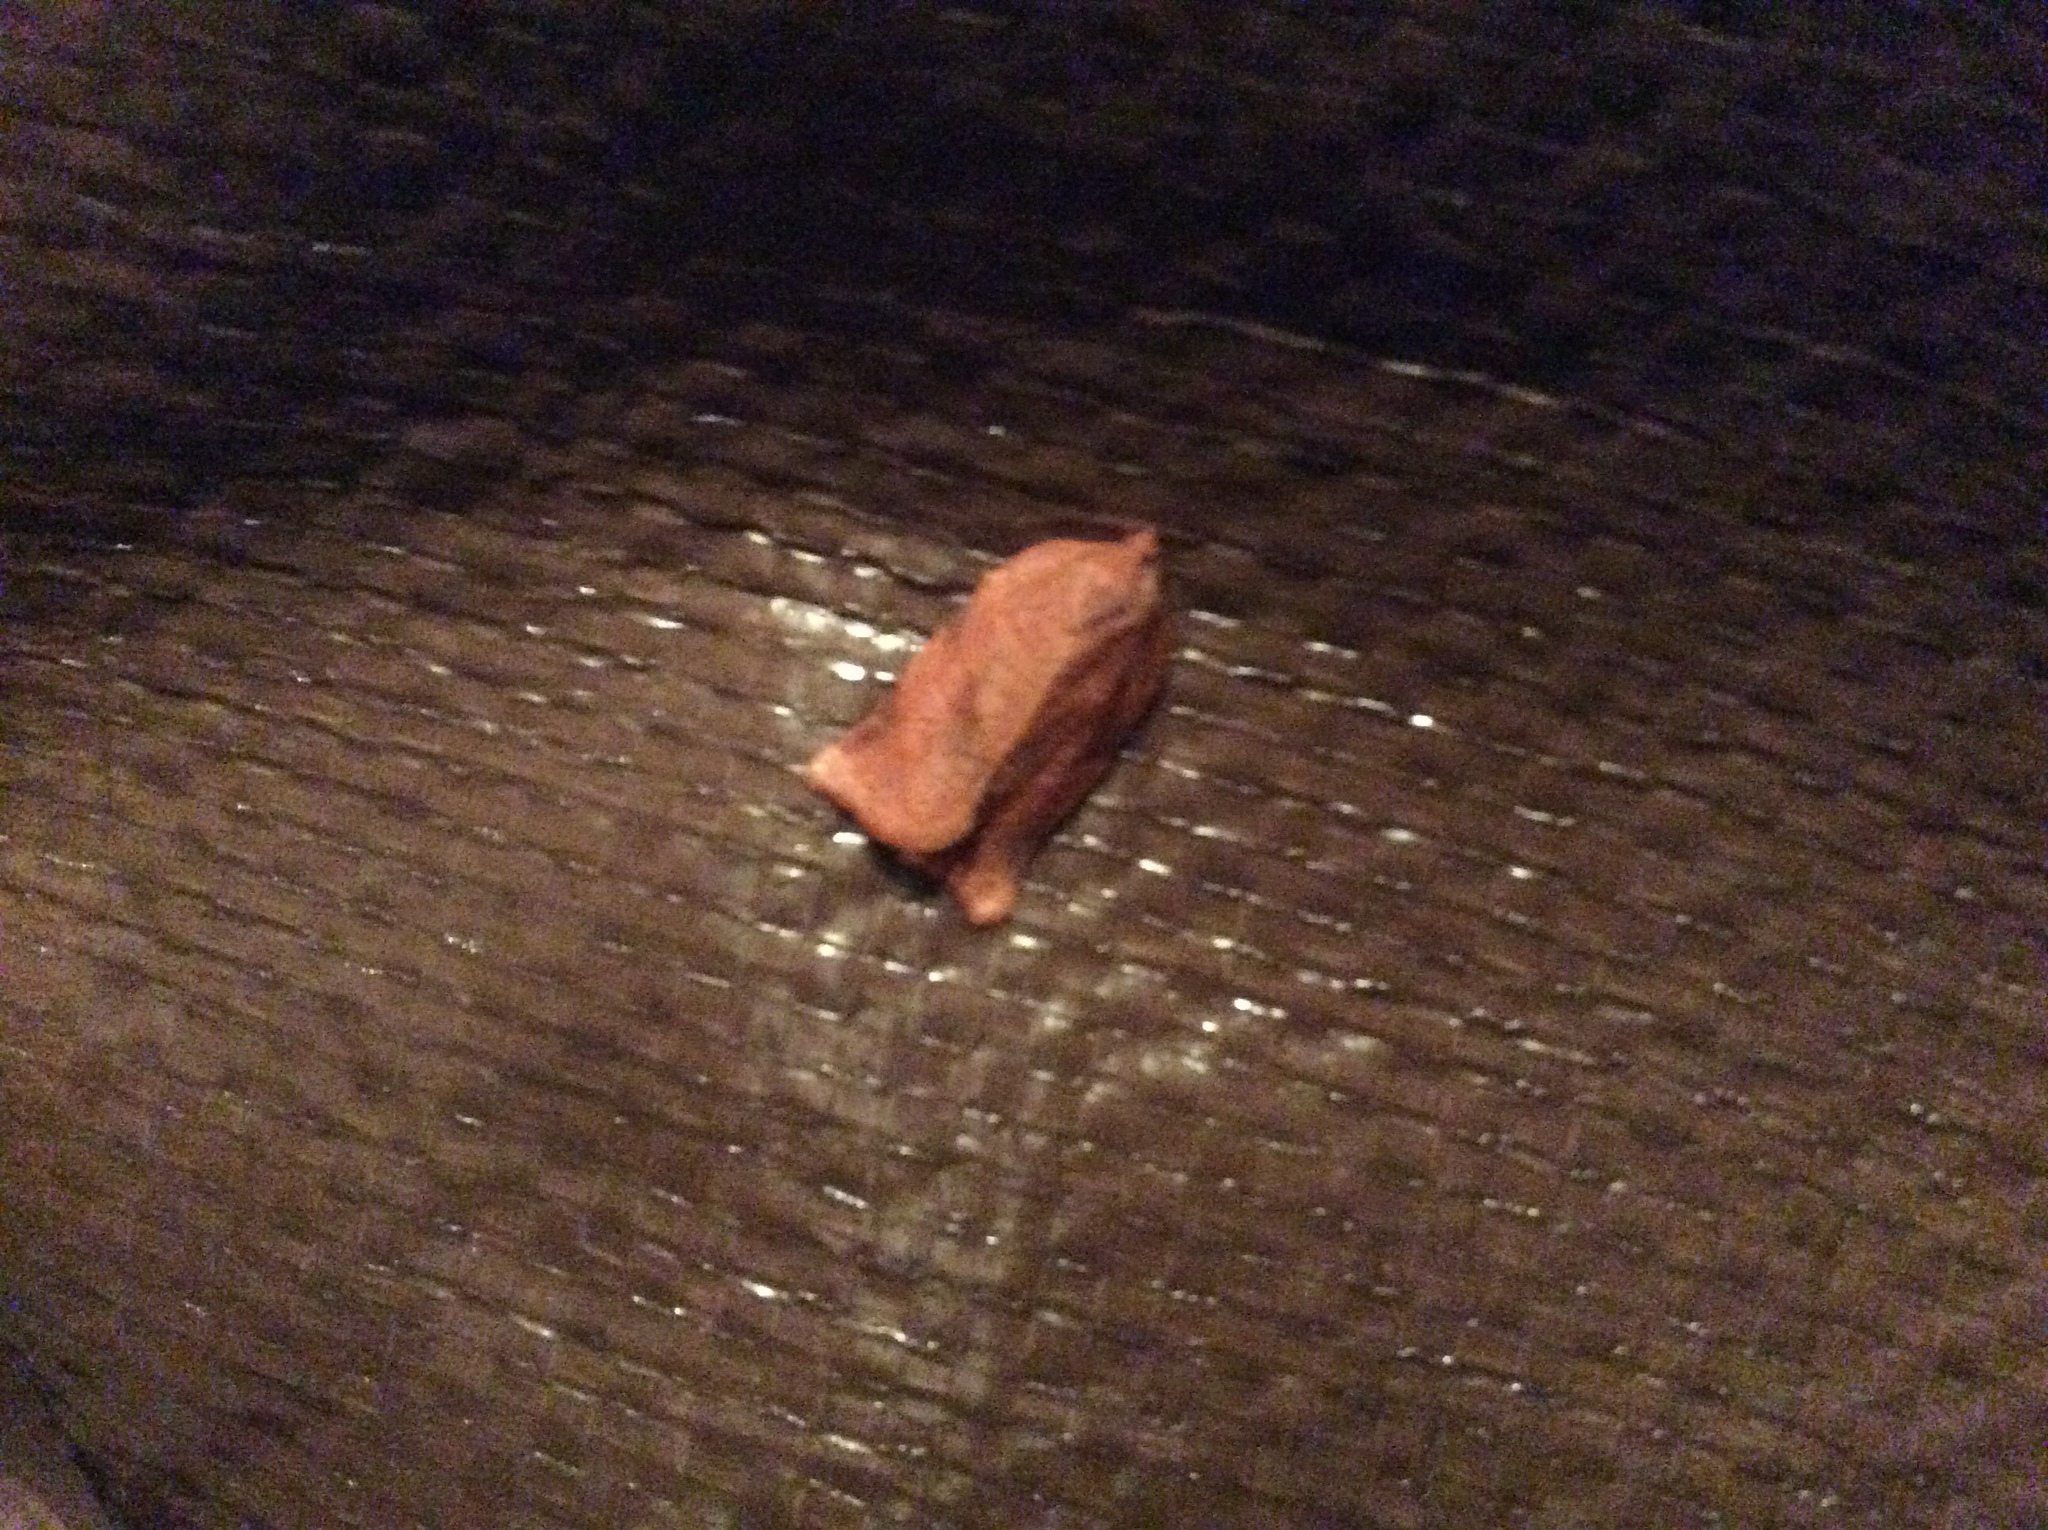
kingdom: Animalia
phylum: Arthropoda
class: Insecta
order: Lepidoptera
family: Tortricidae
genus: Choristoneura
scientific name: Choristoneura parallela
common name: Parallel-banded leafroller moth
